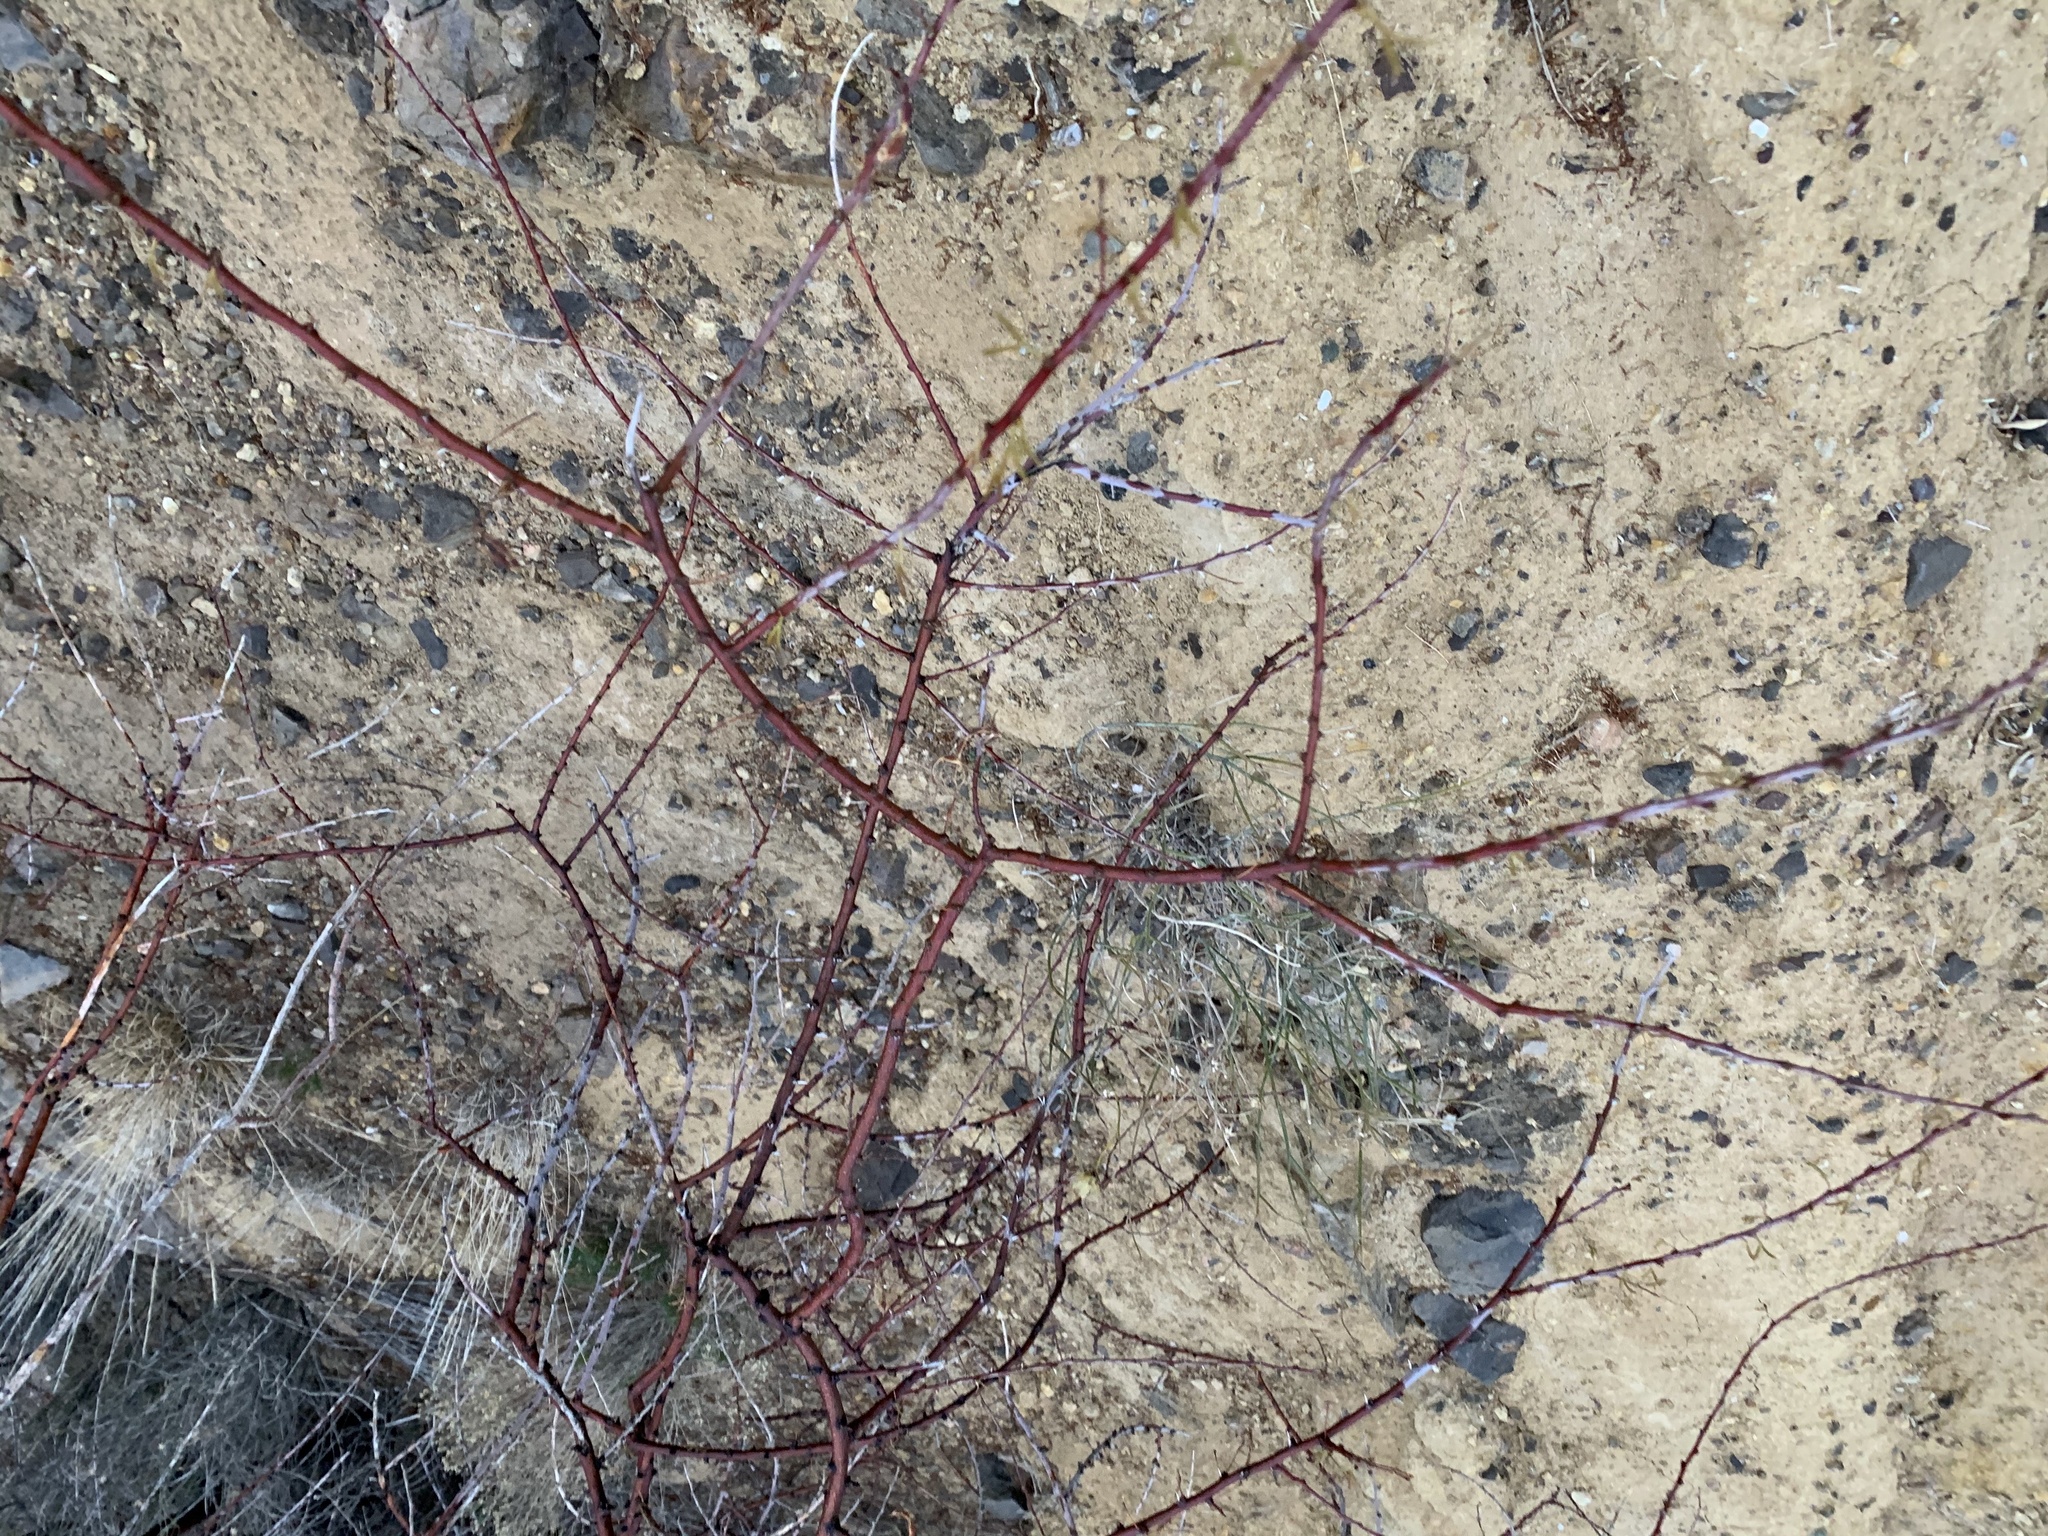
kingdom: Plantae
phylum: Tracheophyta
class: Magnoliopsida
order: Fabales
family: Fabaceae
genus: Vachellia
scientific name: Vachellia constricta
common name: Mescat acacia
